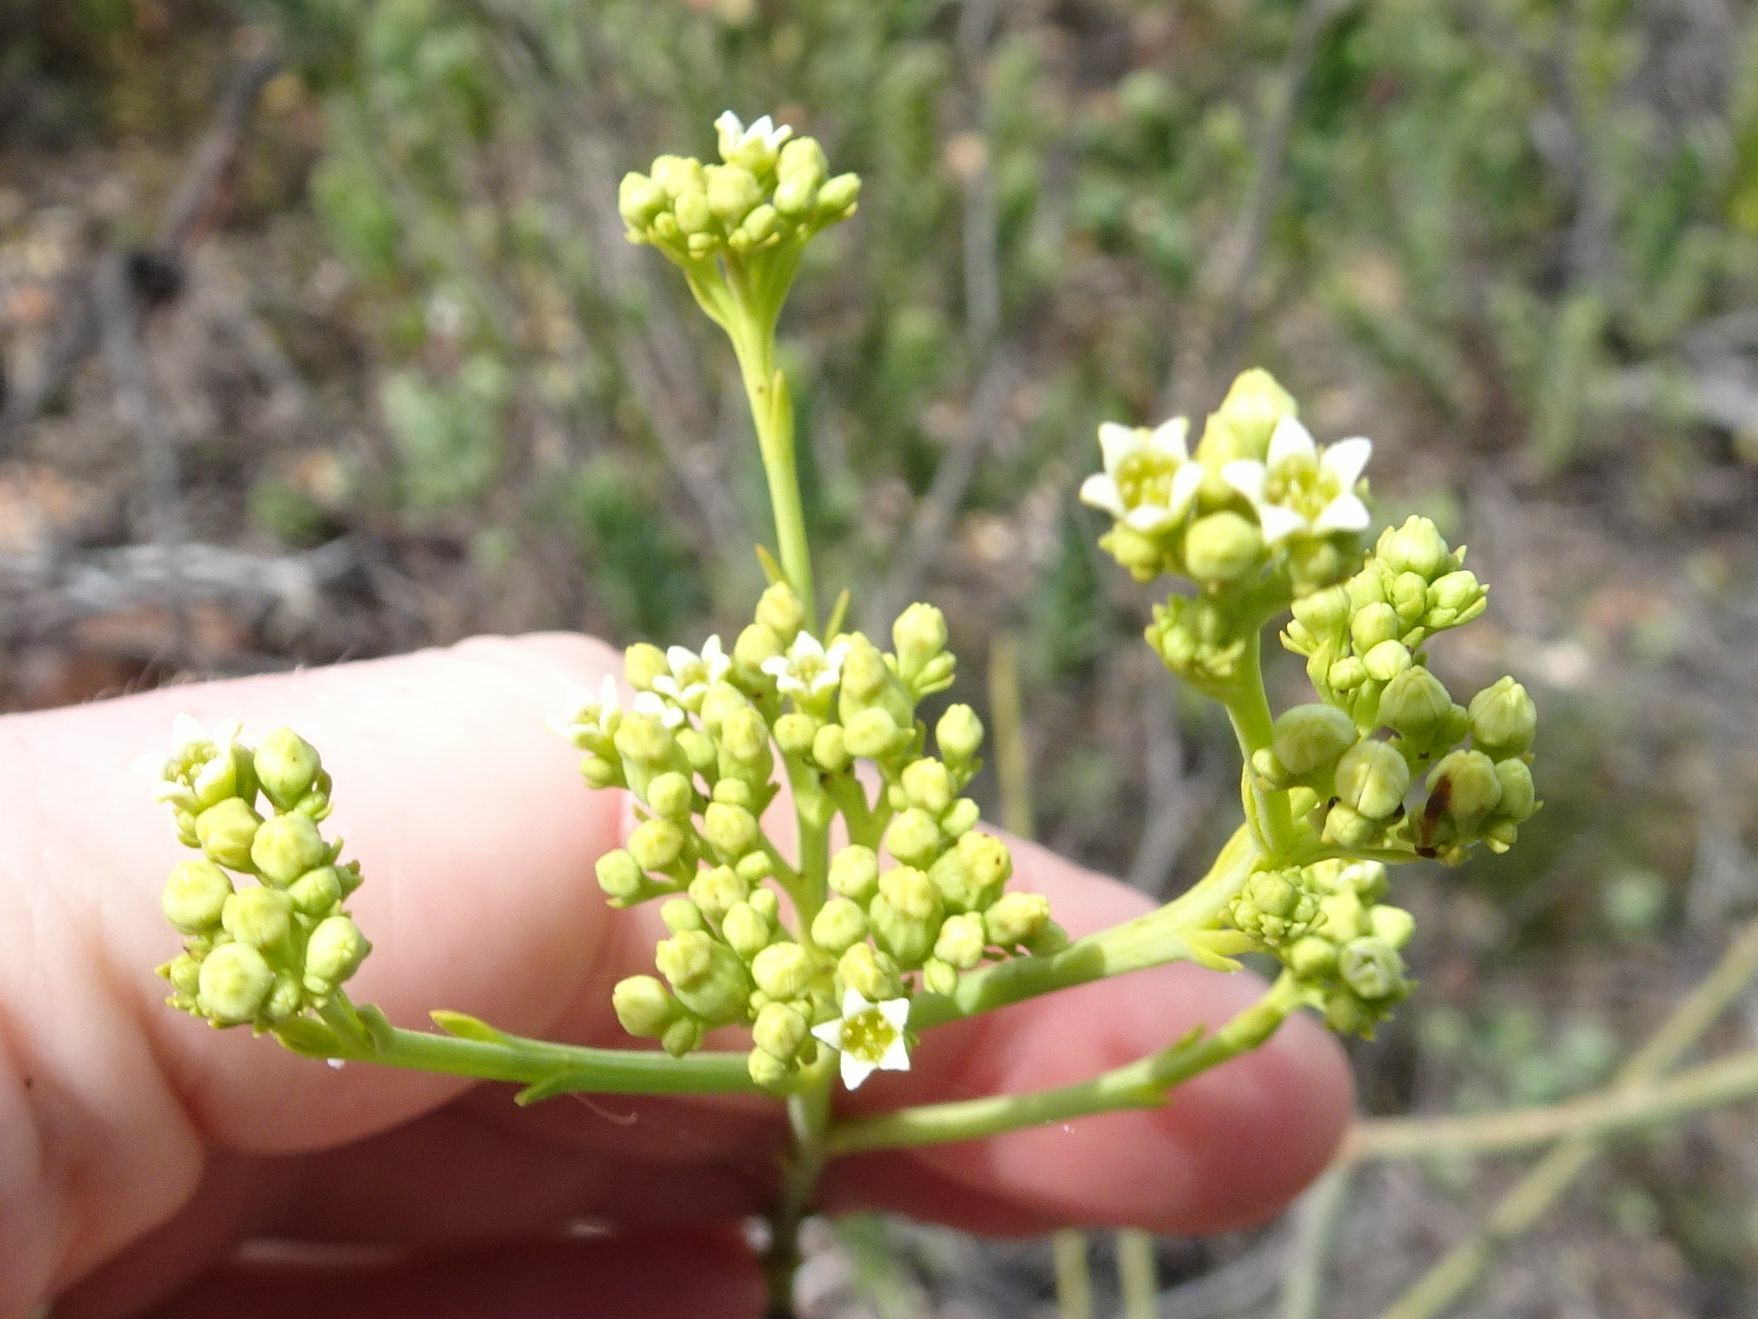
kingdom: Plantae
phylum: Tracheophyta
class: Magnoliopsida
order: Santalales
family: Thesiaceae
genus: Thesium
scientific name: Thesium strictum
